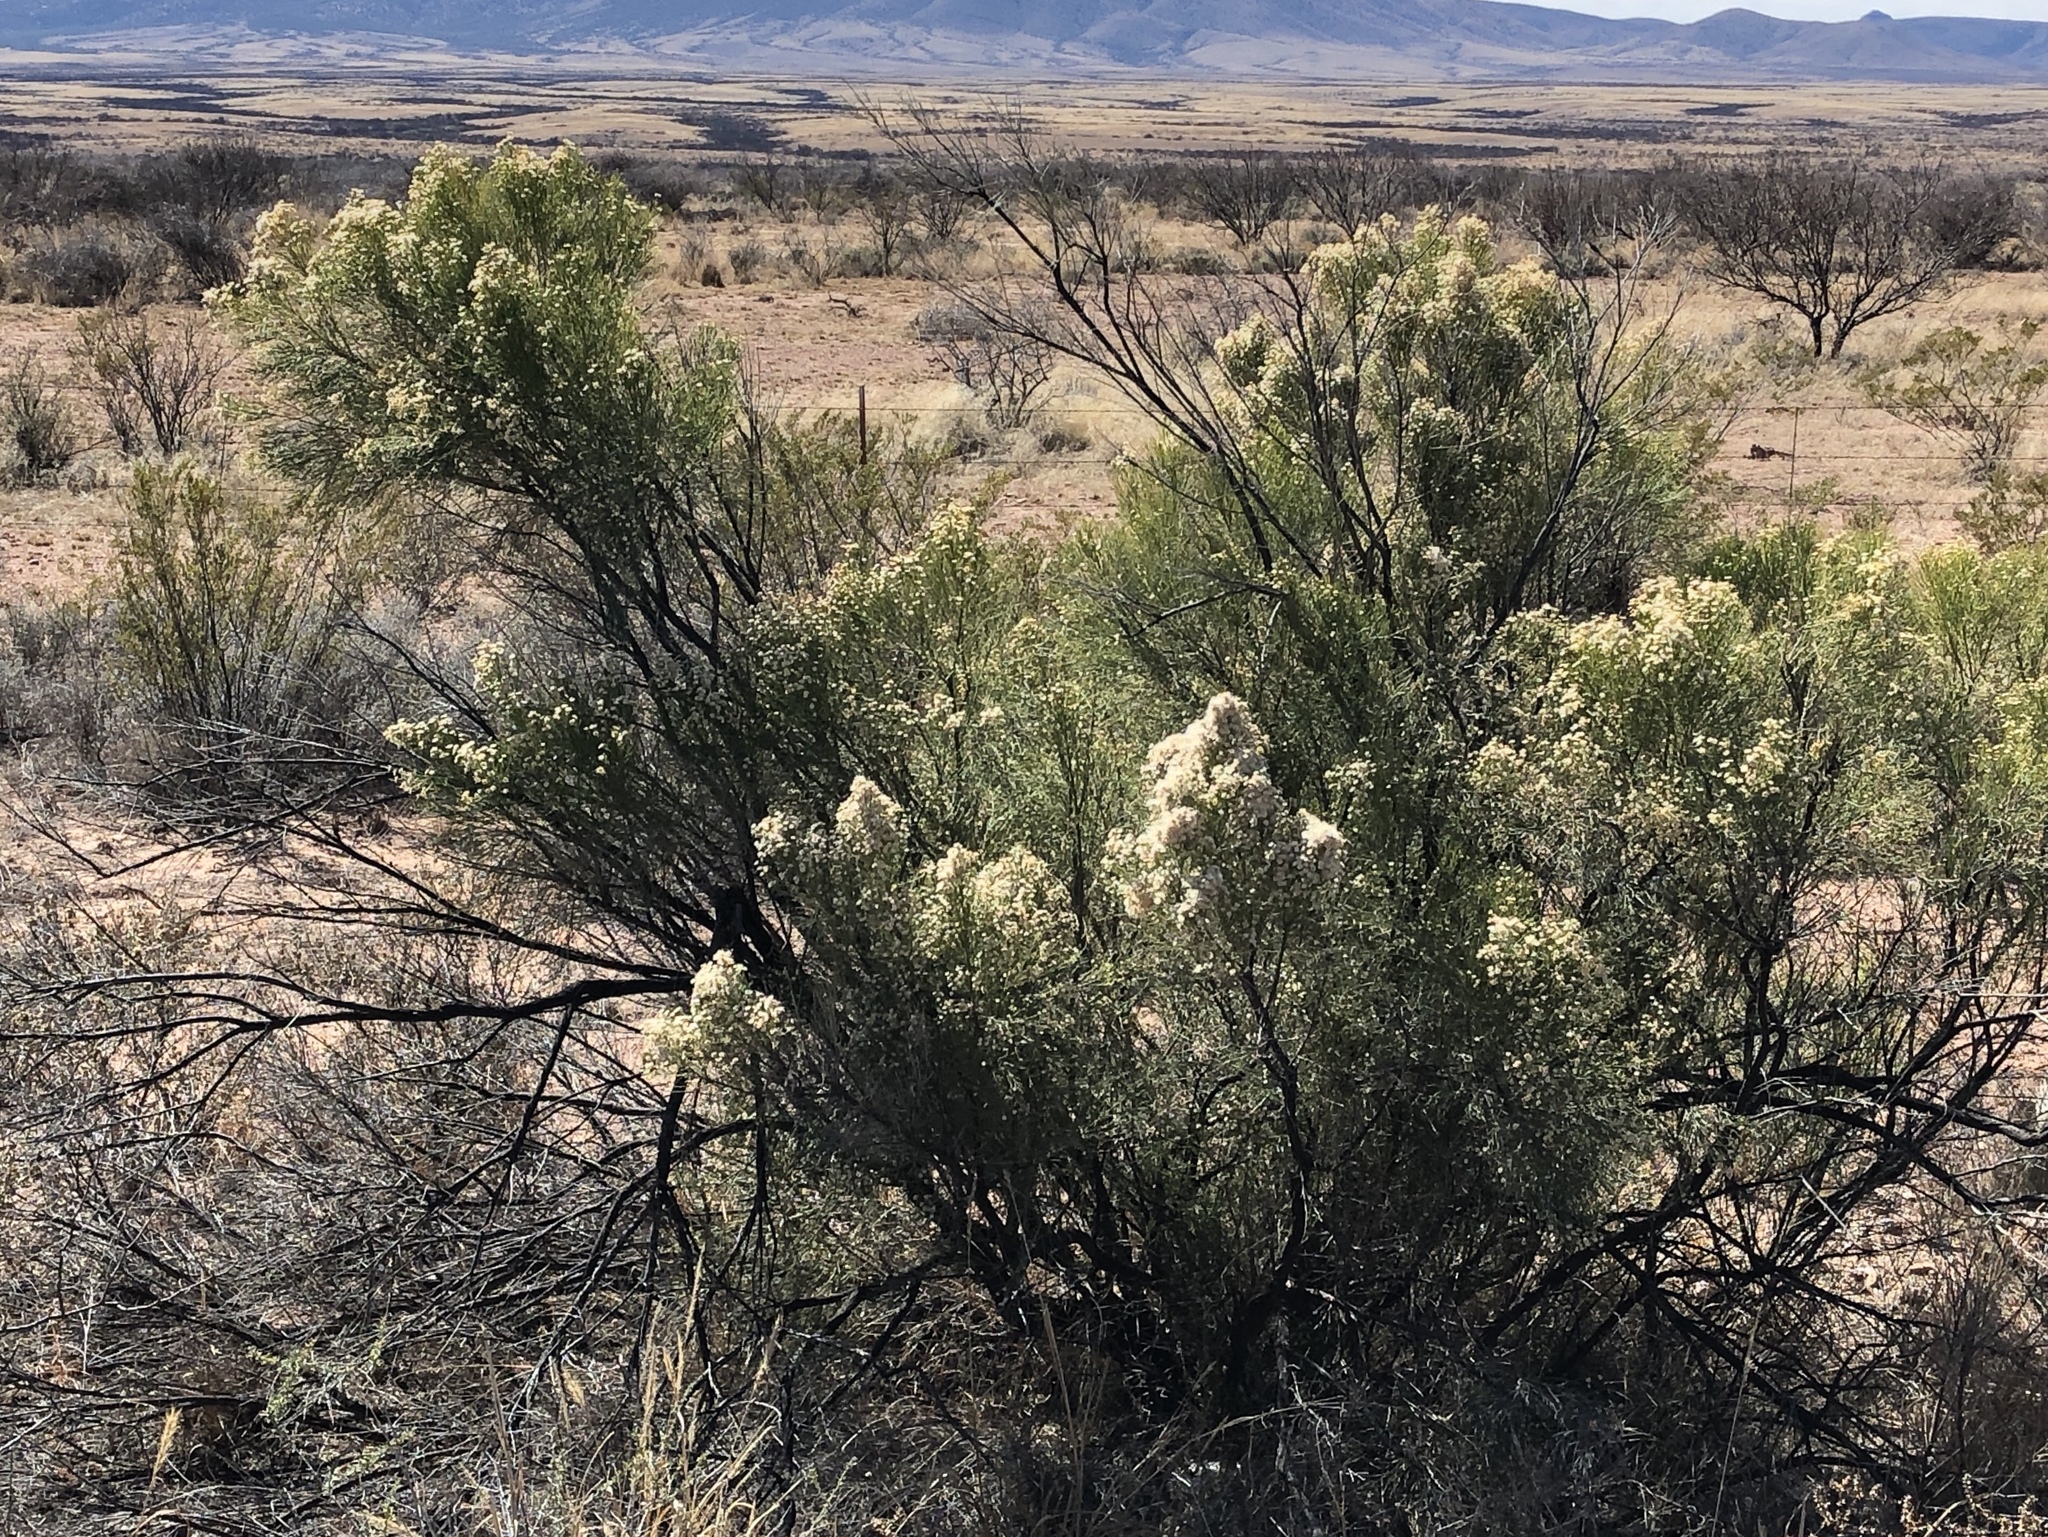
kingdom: Plantae
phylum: Tracheophyta
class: Magnoliopsida
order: Asterales
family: Asteraceae
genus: Baccharis
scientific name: Baccharis sarothroides
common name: Desert-broom
